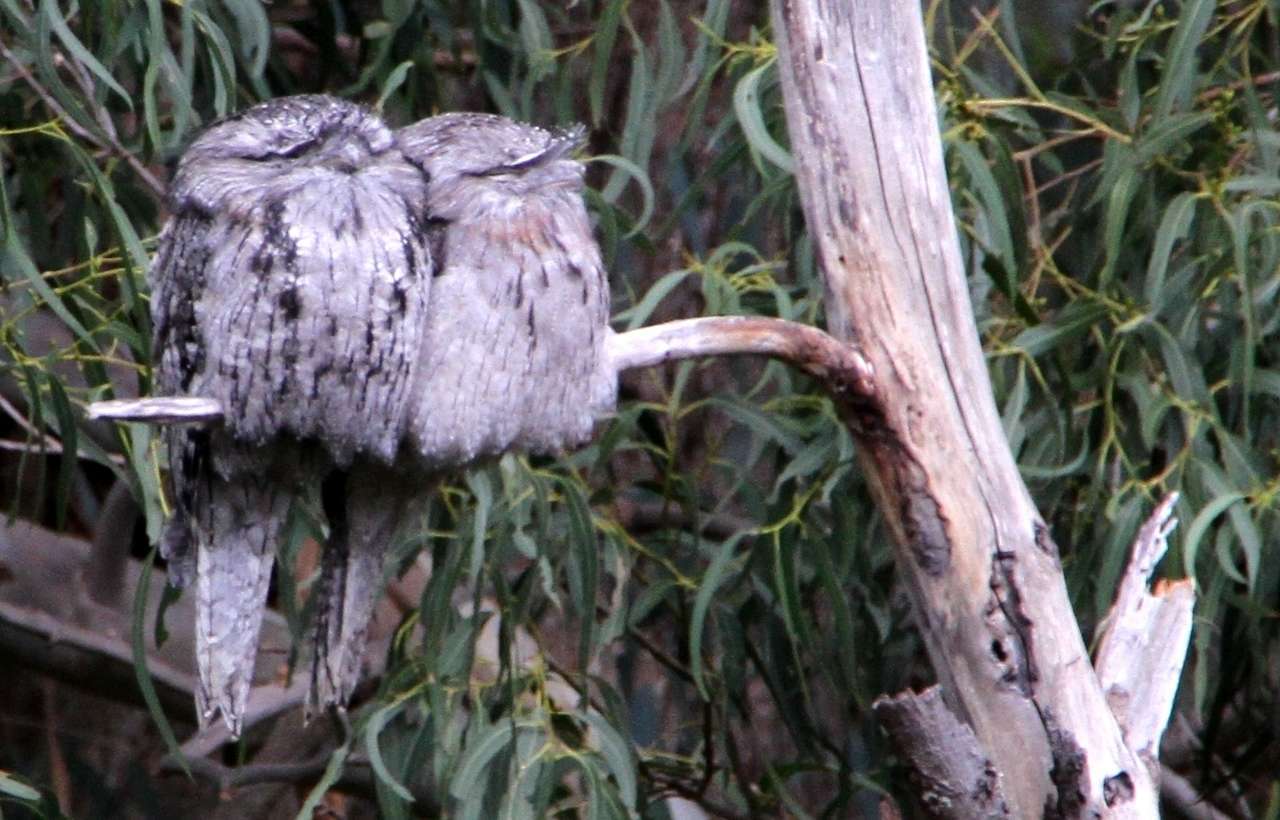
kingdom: Animalia
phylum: Chordata
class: Aves
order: Caprimulgiformes
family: Podargidae
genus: Podargus
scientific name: Podargus strigoides
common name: Tawny frogmouth
